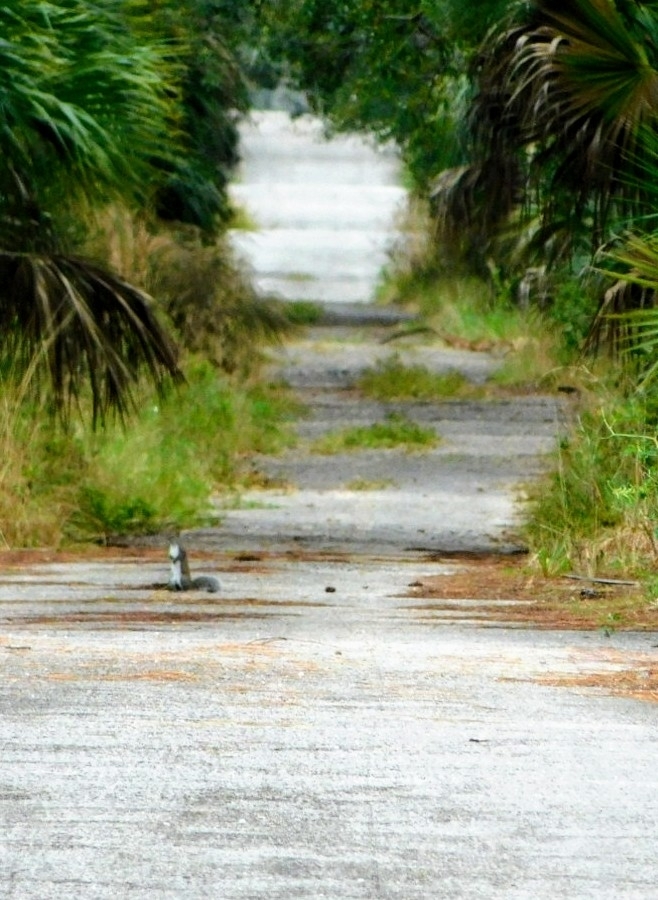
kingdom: Animalia
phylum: Chordata
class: Mammalia
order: Rodentia
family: Sciuridae
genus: Sciurus
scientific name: Sciurus carolinensis
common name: Eastern gray squirrel
